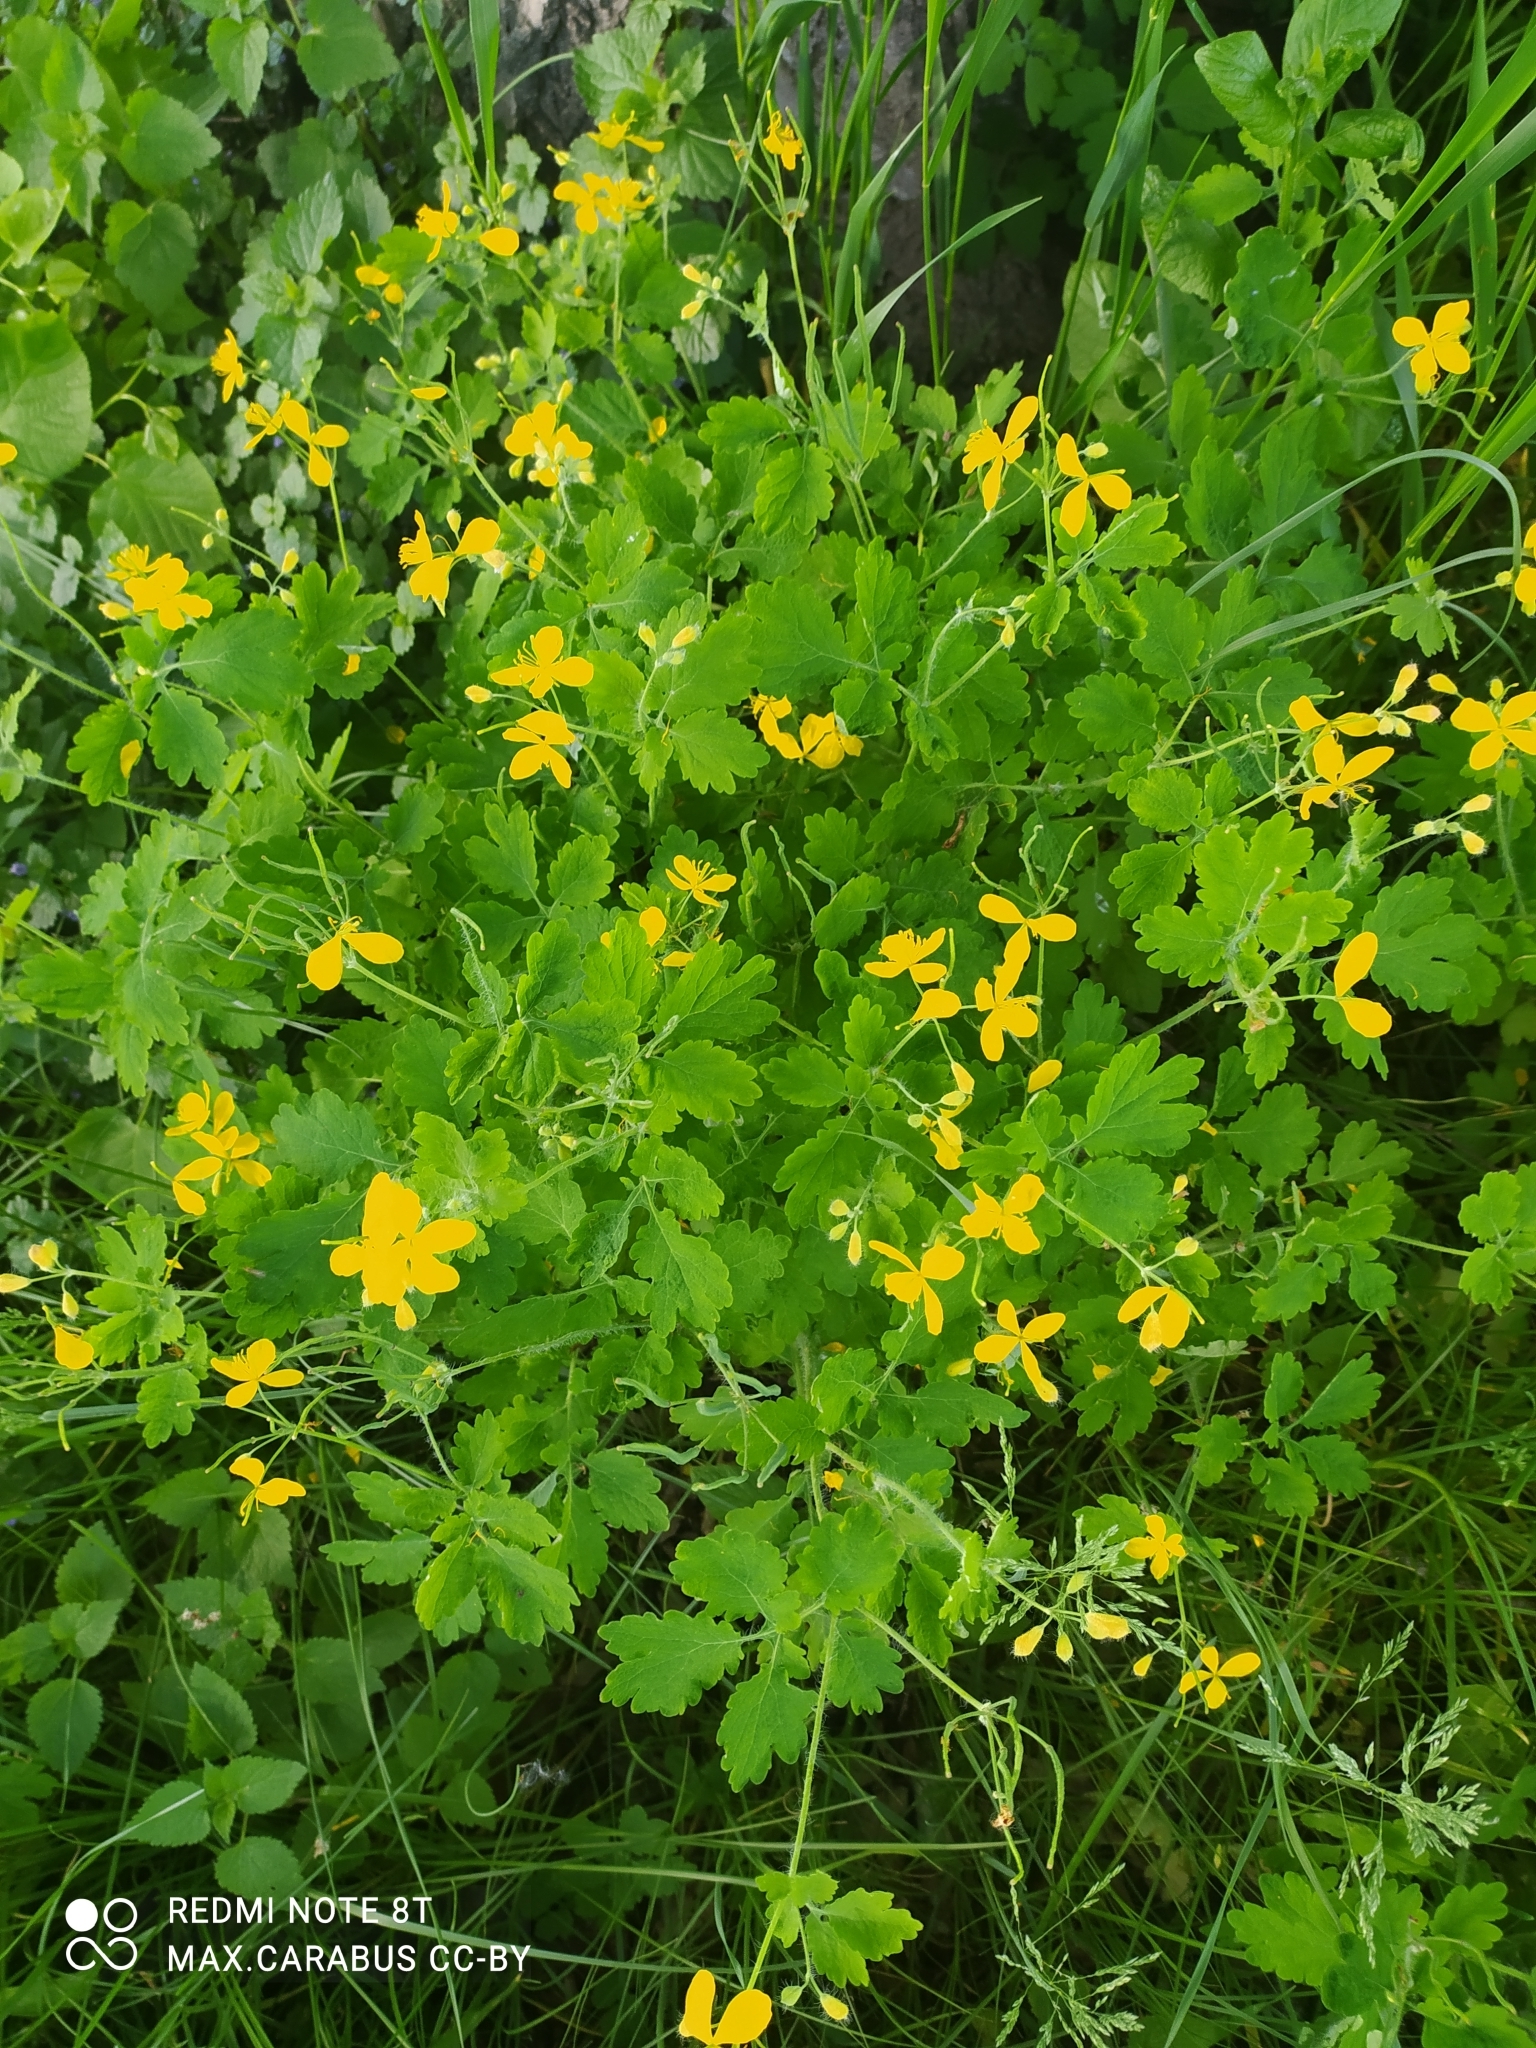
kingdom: Plantae
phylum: Tracheophyta
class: Magnoliopsida
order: Ranunculales
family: Papaveraceae
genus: Chelidonium
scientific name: Chelidonium majus
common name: Greater celandine
